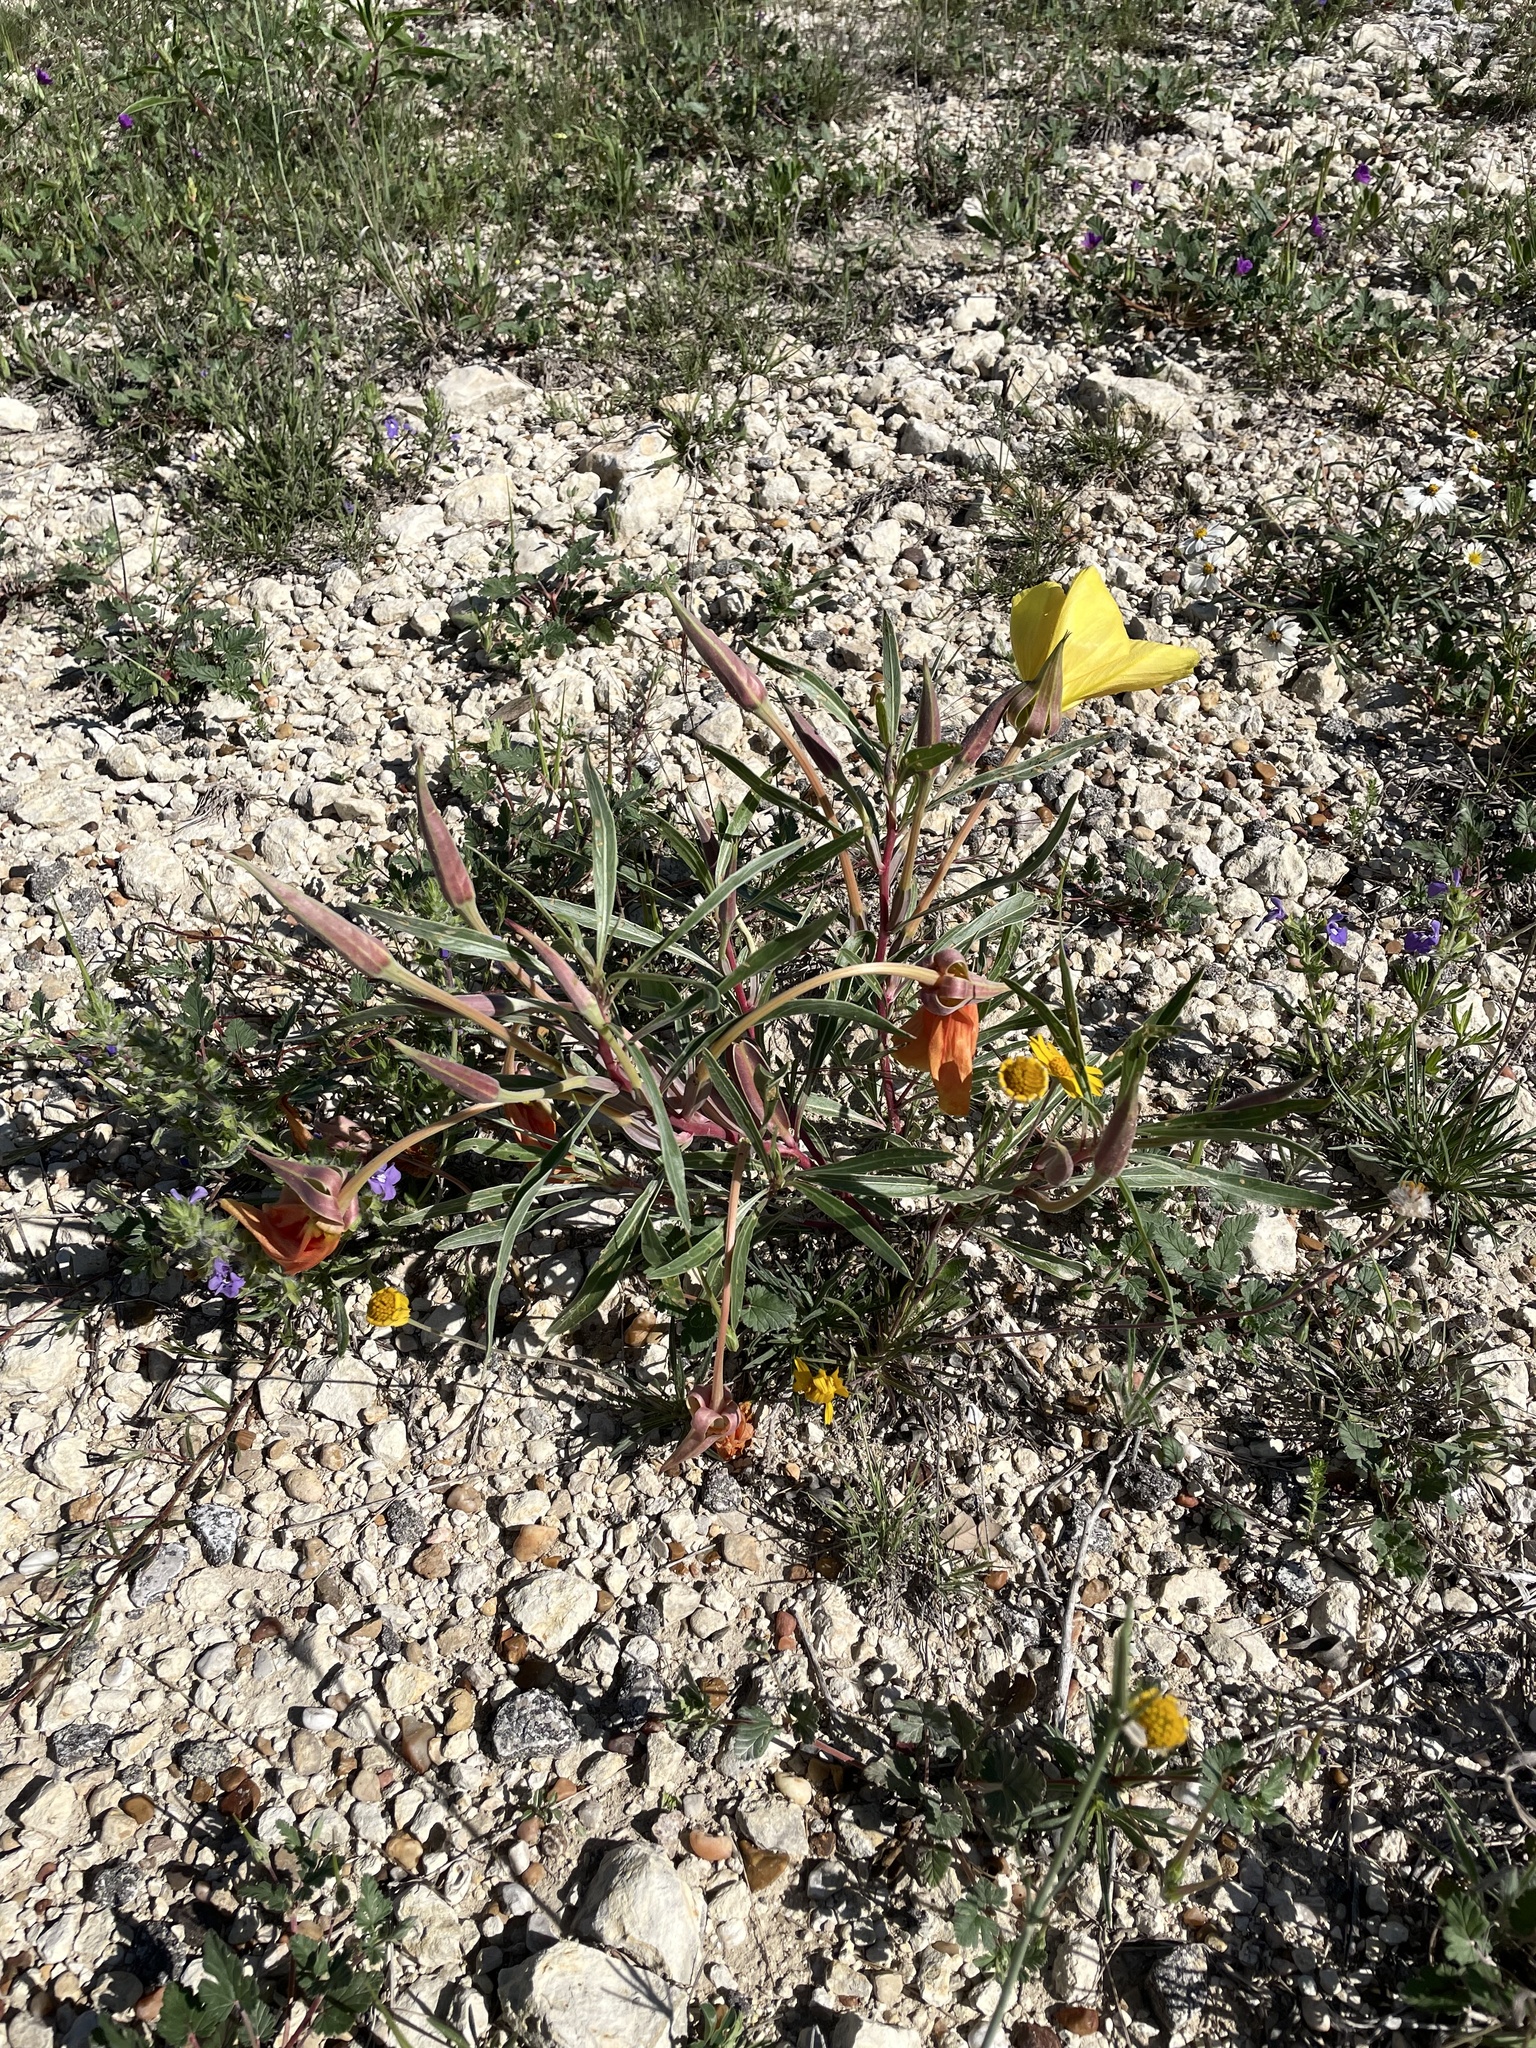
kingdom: Plantae
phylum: Tracheophyta
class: Magnoliopsida
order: Myrtales
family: Onagraceae
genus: Oenothera
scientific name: Oenothera macrocarpa
